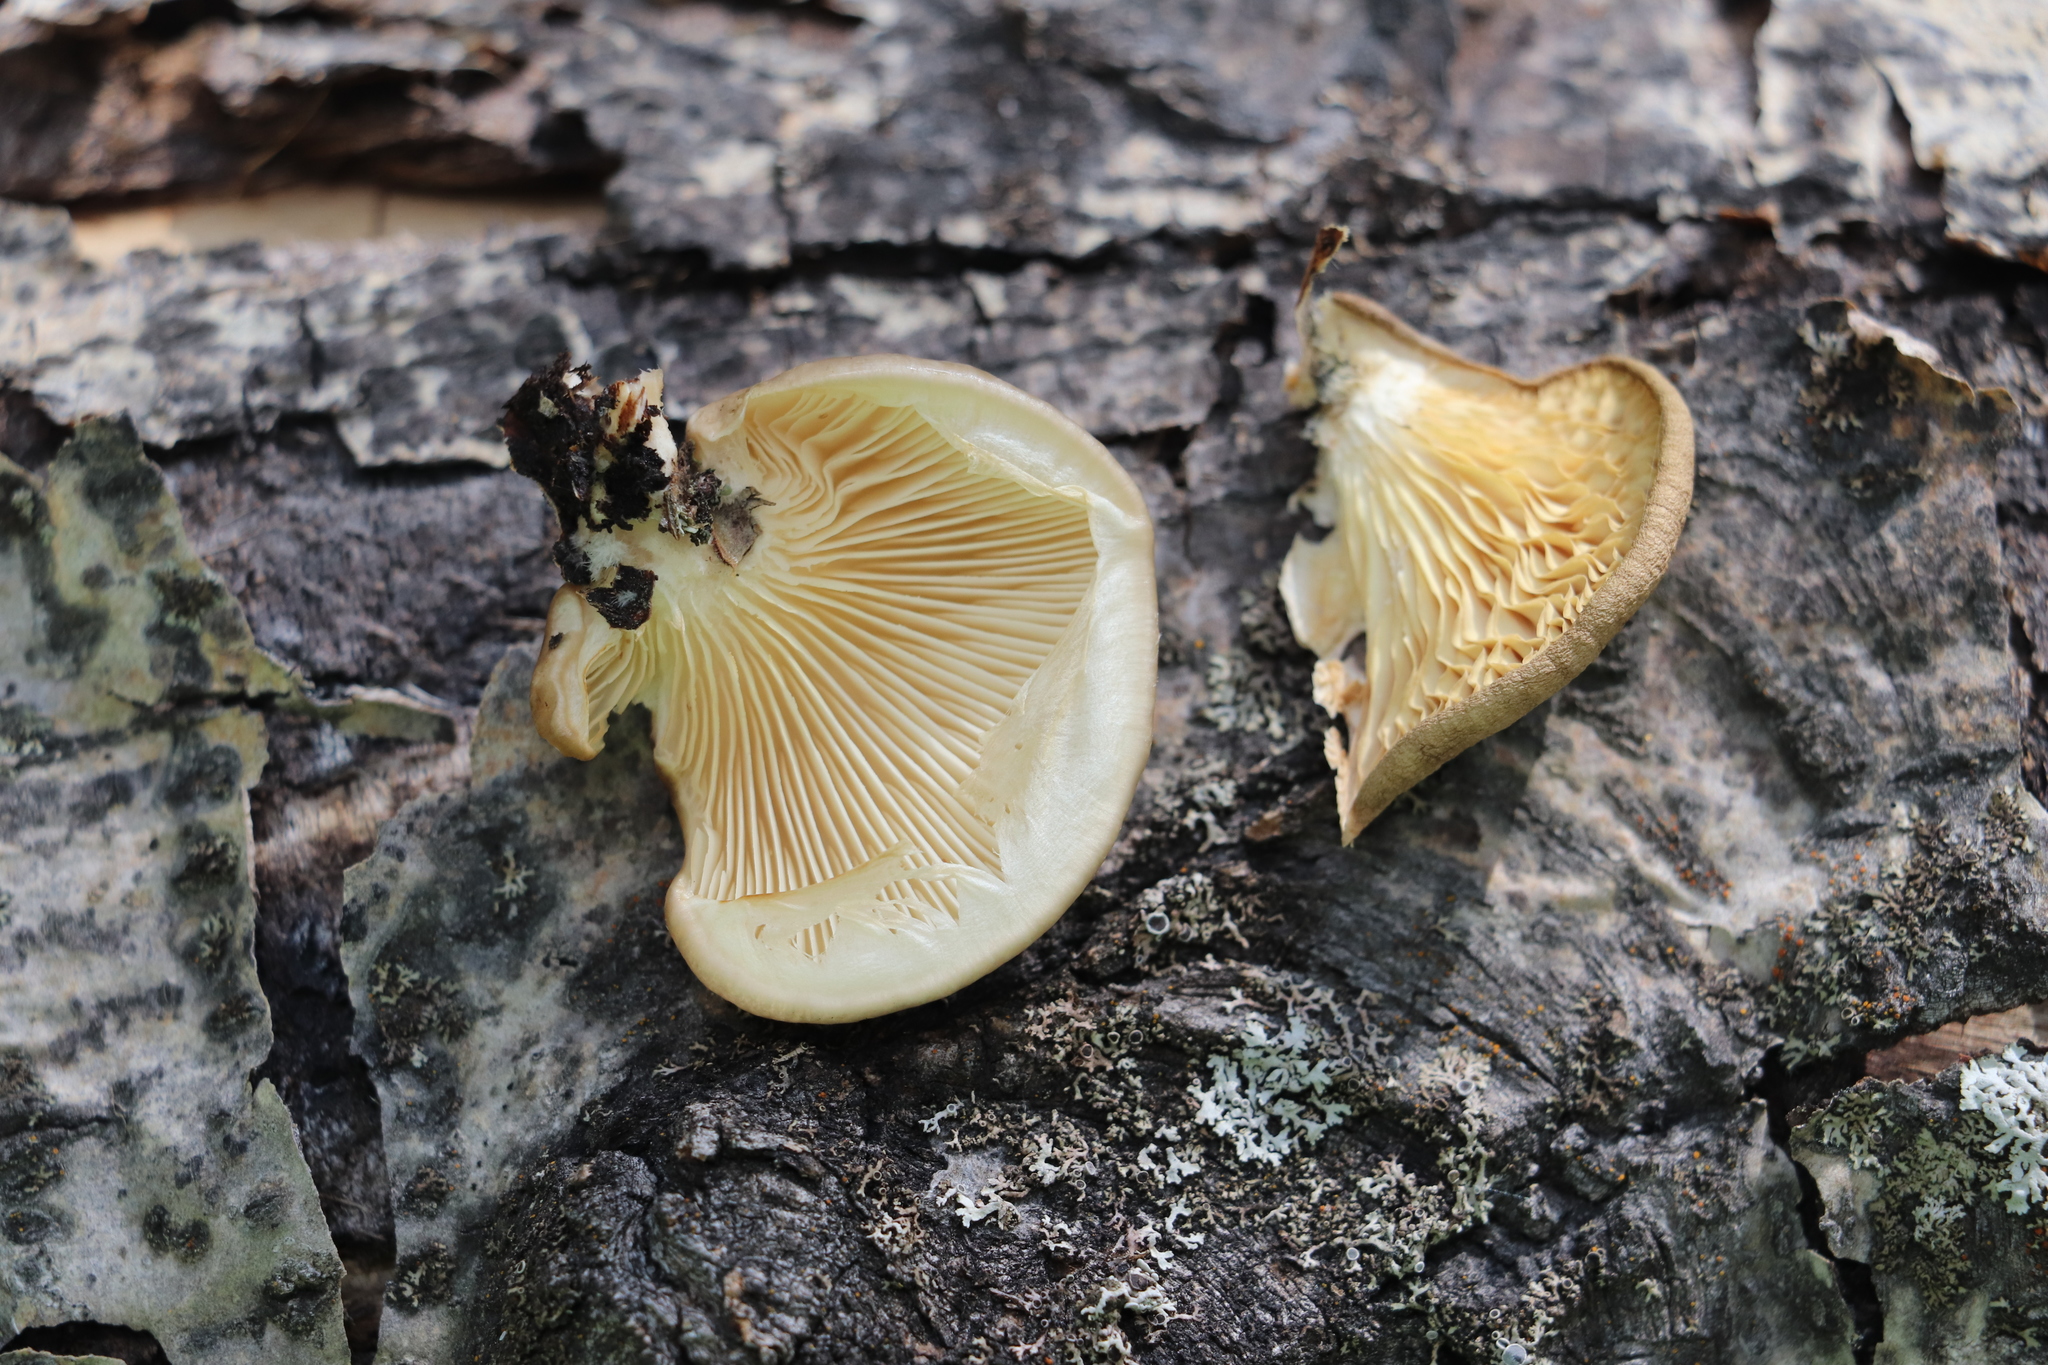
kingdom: Fungi
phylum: Basidiomycota
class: Agaricomycetes
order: Agaricales
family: Pleurotaceae
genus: Pleurotus
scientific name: Pleurotus calyptratus
